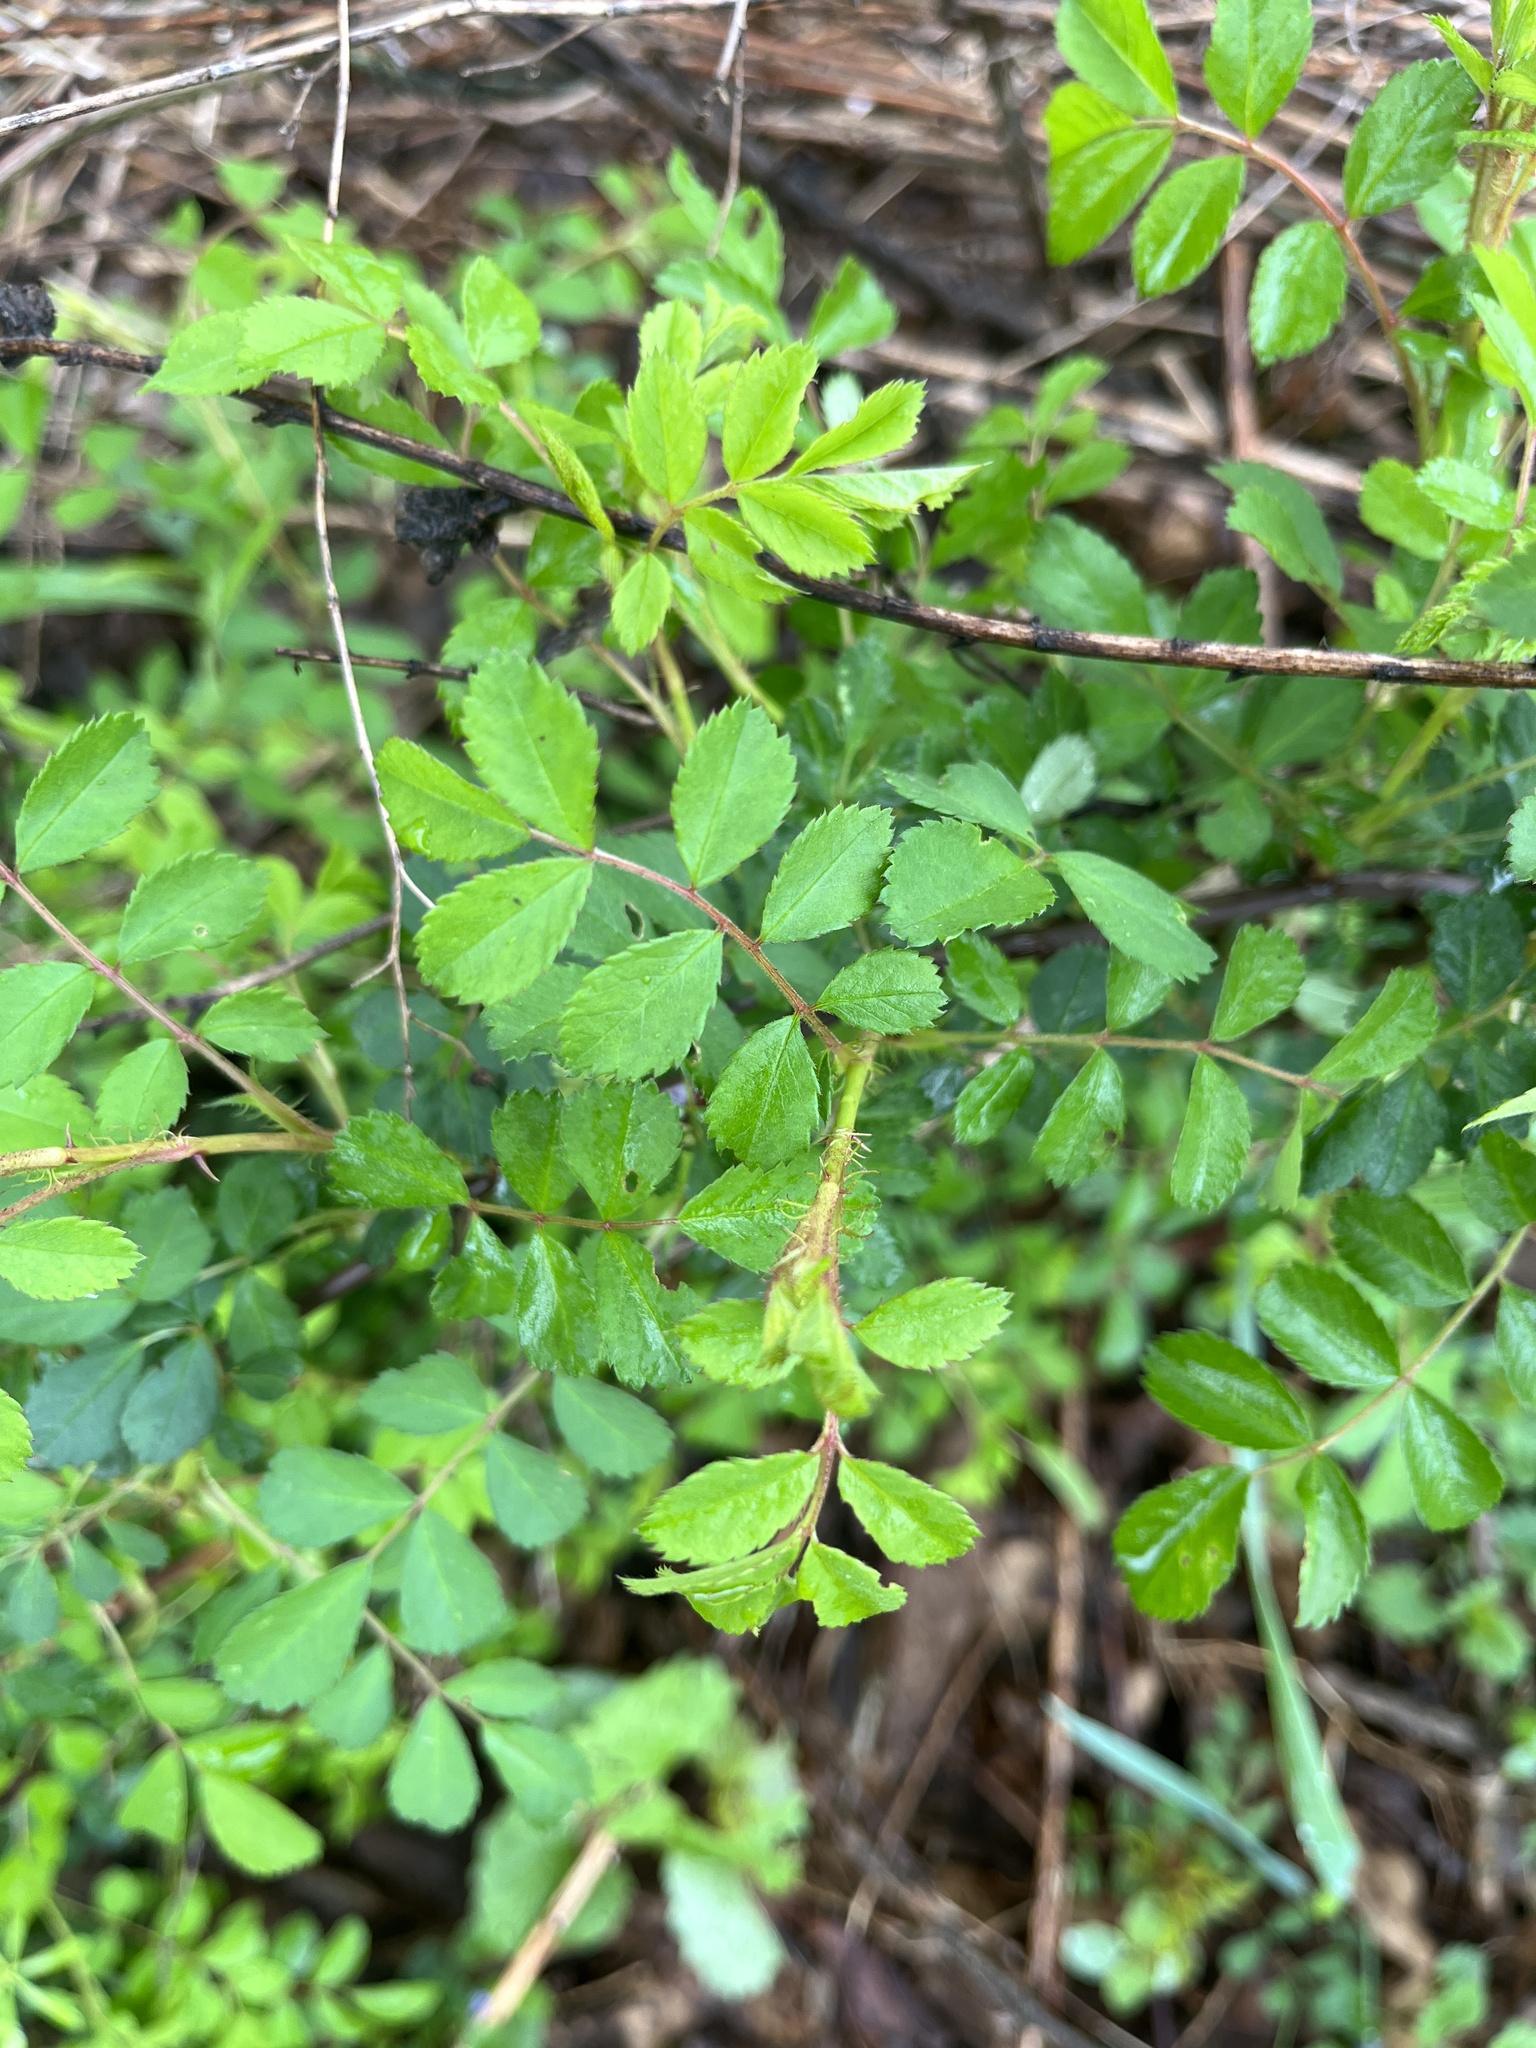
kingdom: Plantae
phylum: Tracheophyta
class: Magnoliopsida
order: Rosales
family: Rosaceae
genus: Rosa
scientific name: Rosa multiflora
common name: Multiflora rose
